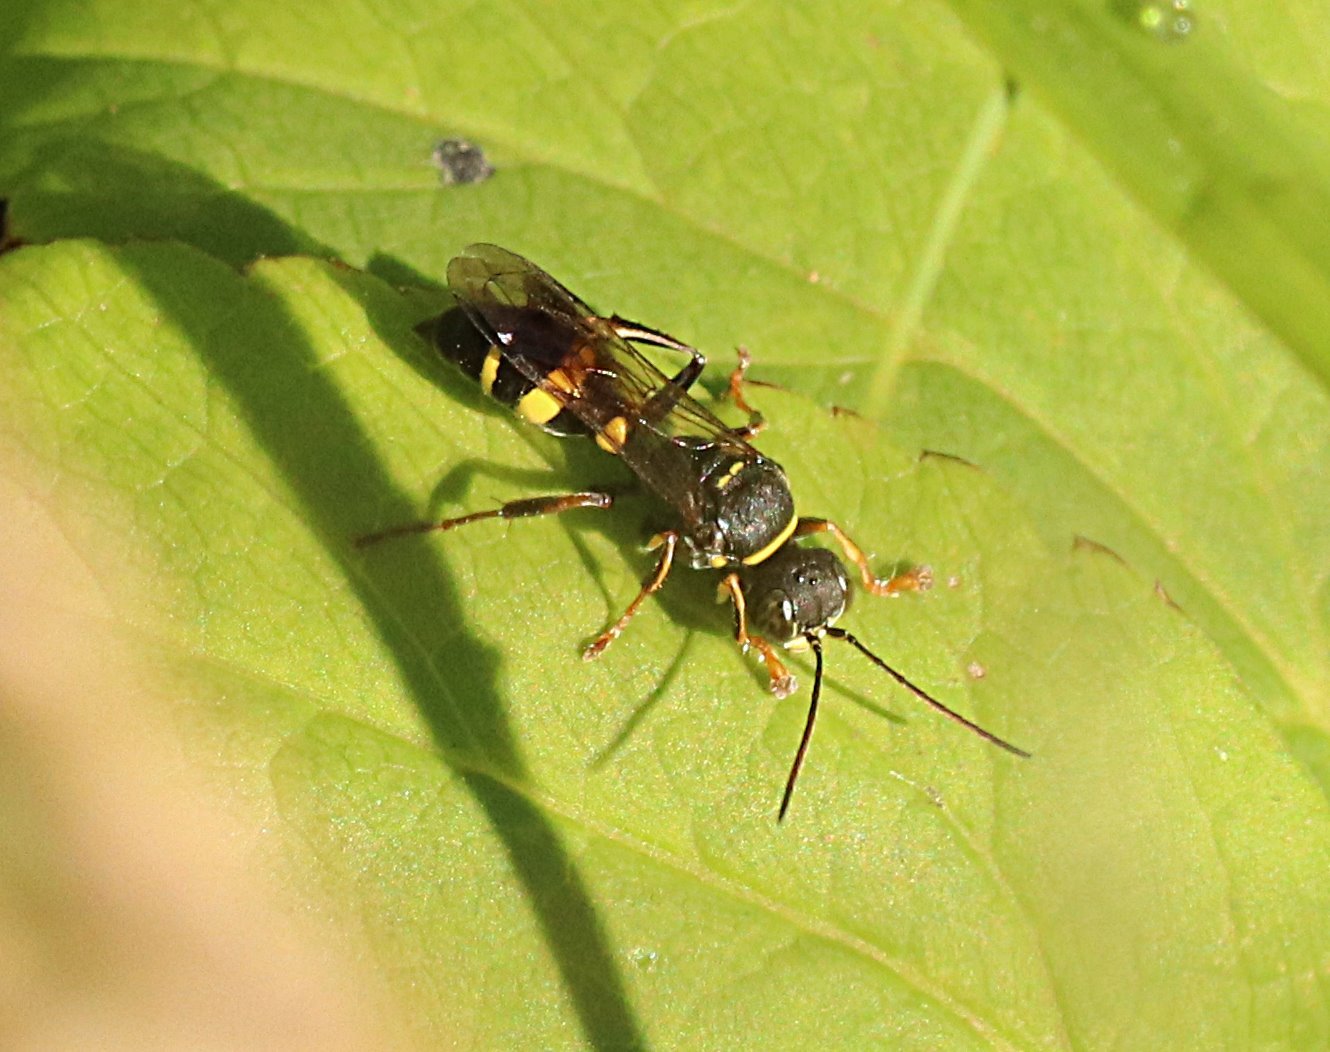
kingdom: Animalia
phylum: Arthropoda
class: Insecta
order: Hymenoptera
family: Crabronidae
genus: Lestiphorus
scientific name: Lestiphorus bicinctus
